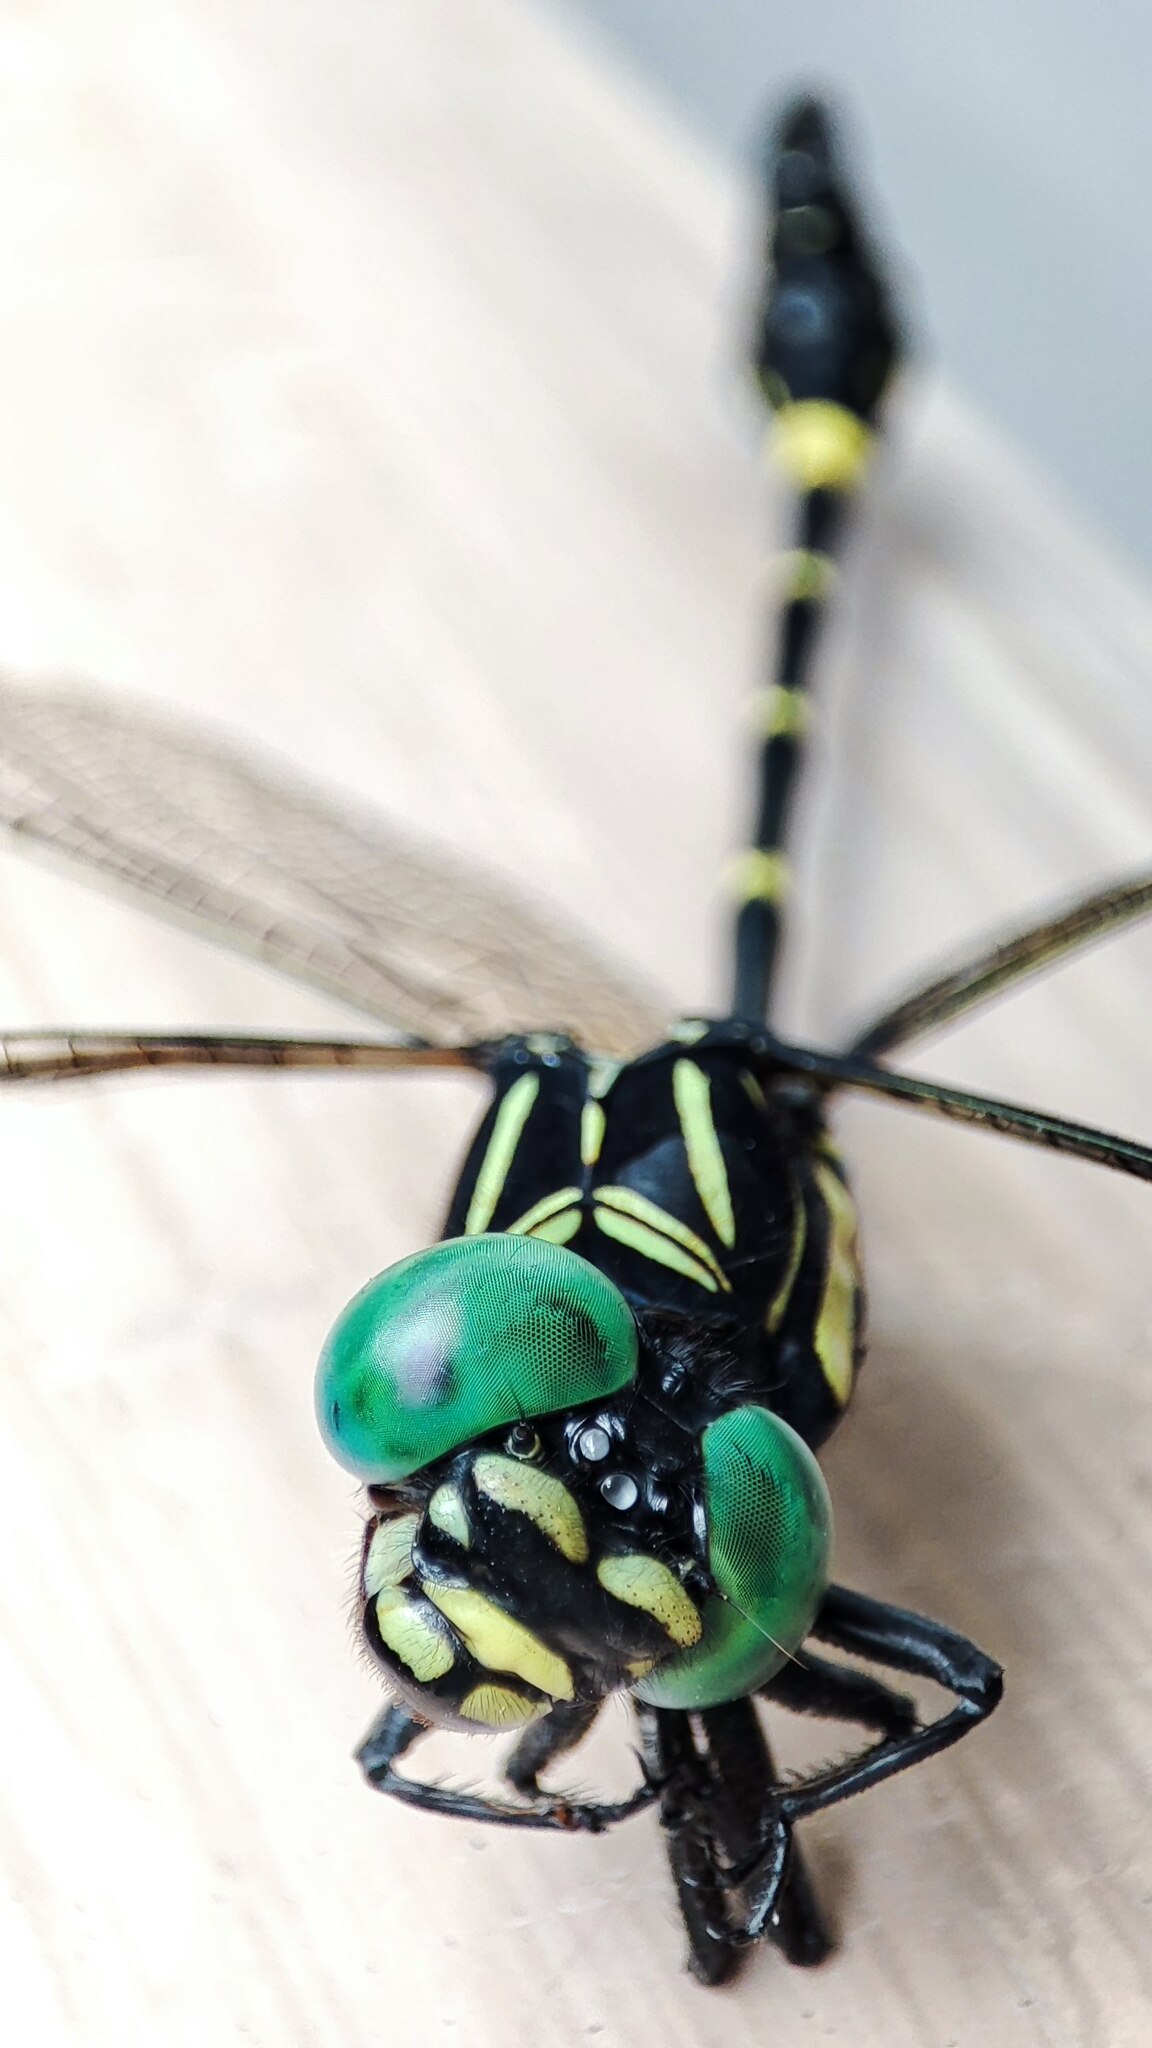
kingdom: Animalia
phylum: Arthropoda
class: Insecta
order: Odonata
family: Gomphidae
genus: Ictinogomphus
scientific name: Ictinogomphus rapax
